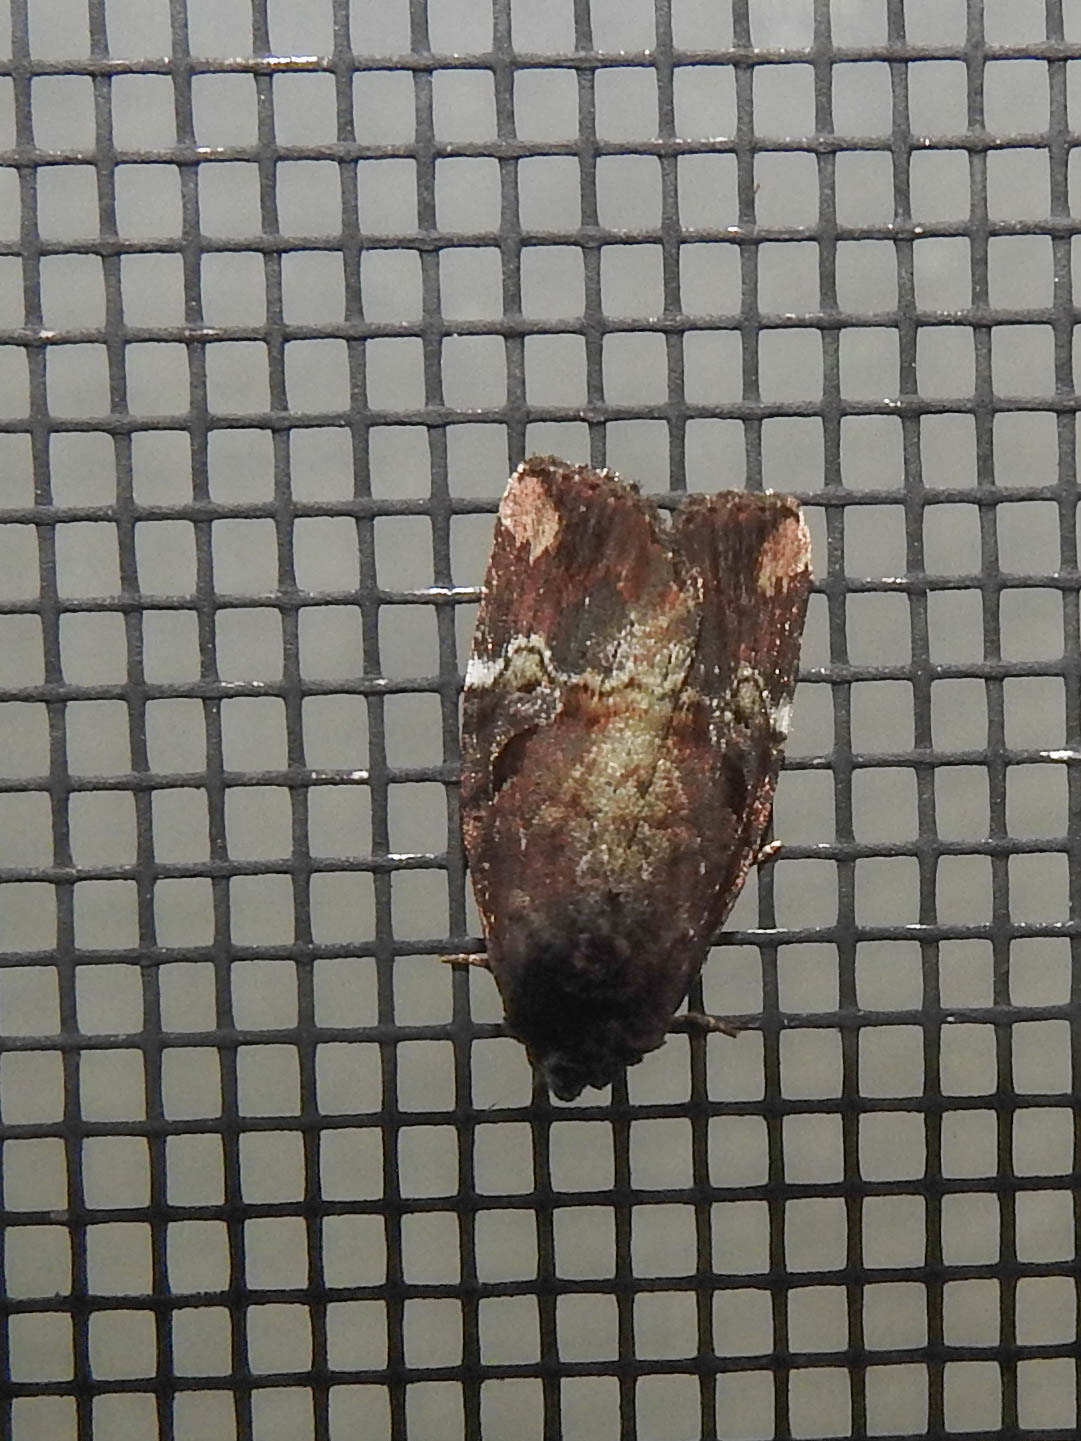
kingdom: Animalia
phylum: Arthropoda
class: Insecta
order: Lepidoptera
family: Noctuidae
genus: Elaphria
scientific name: Elaphria versicolor
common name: Fir harlequin
